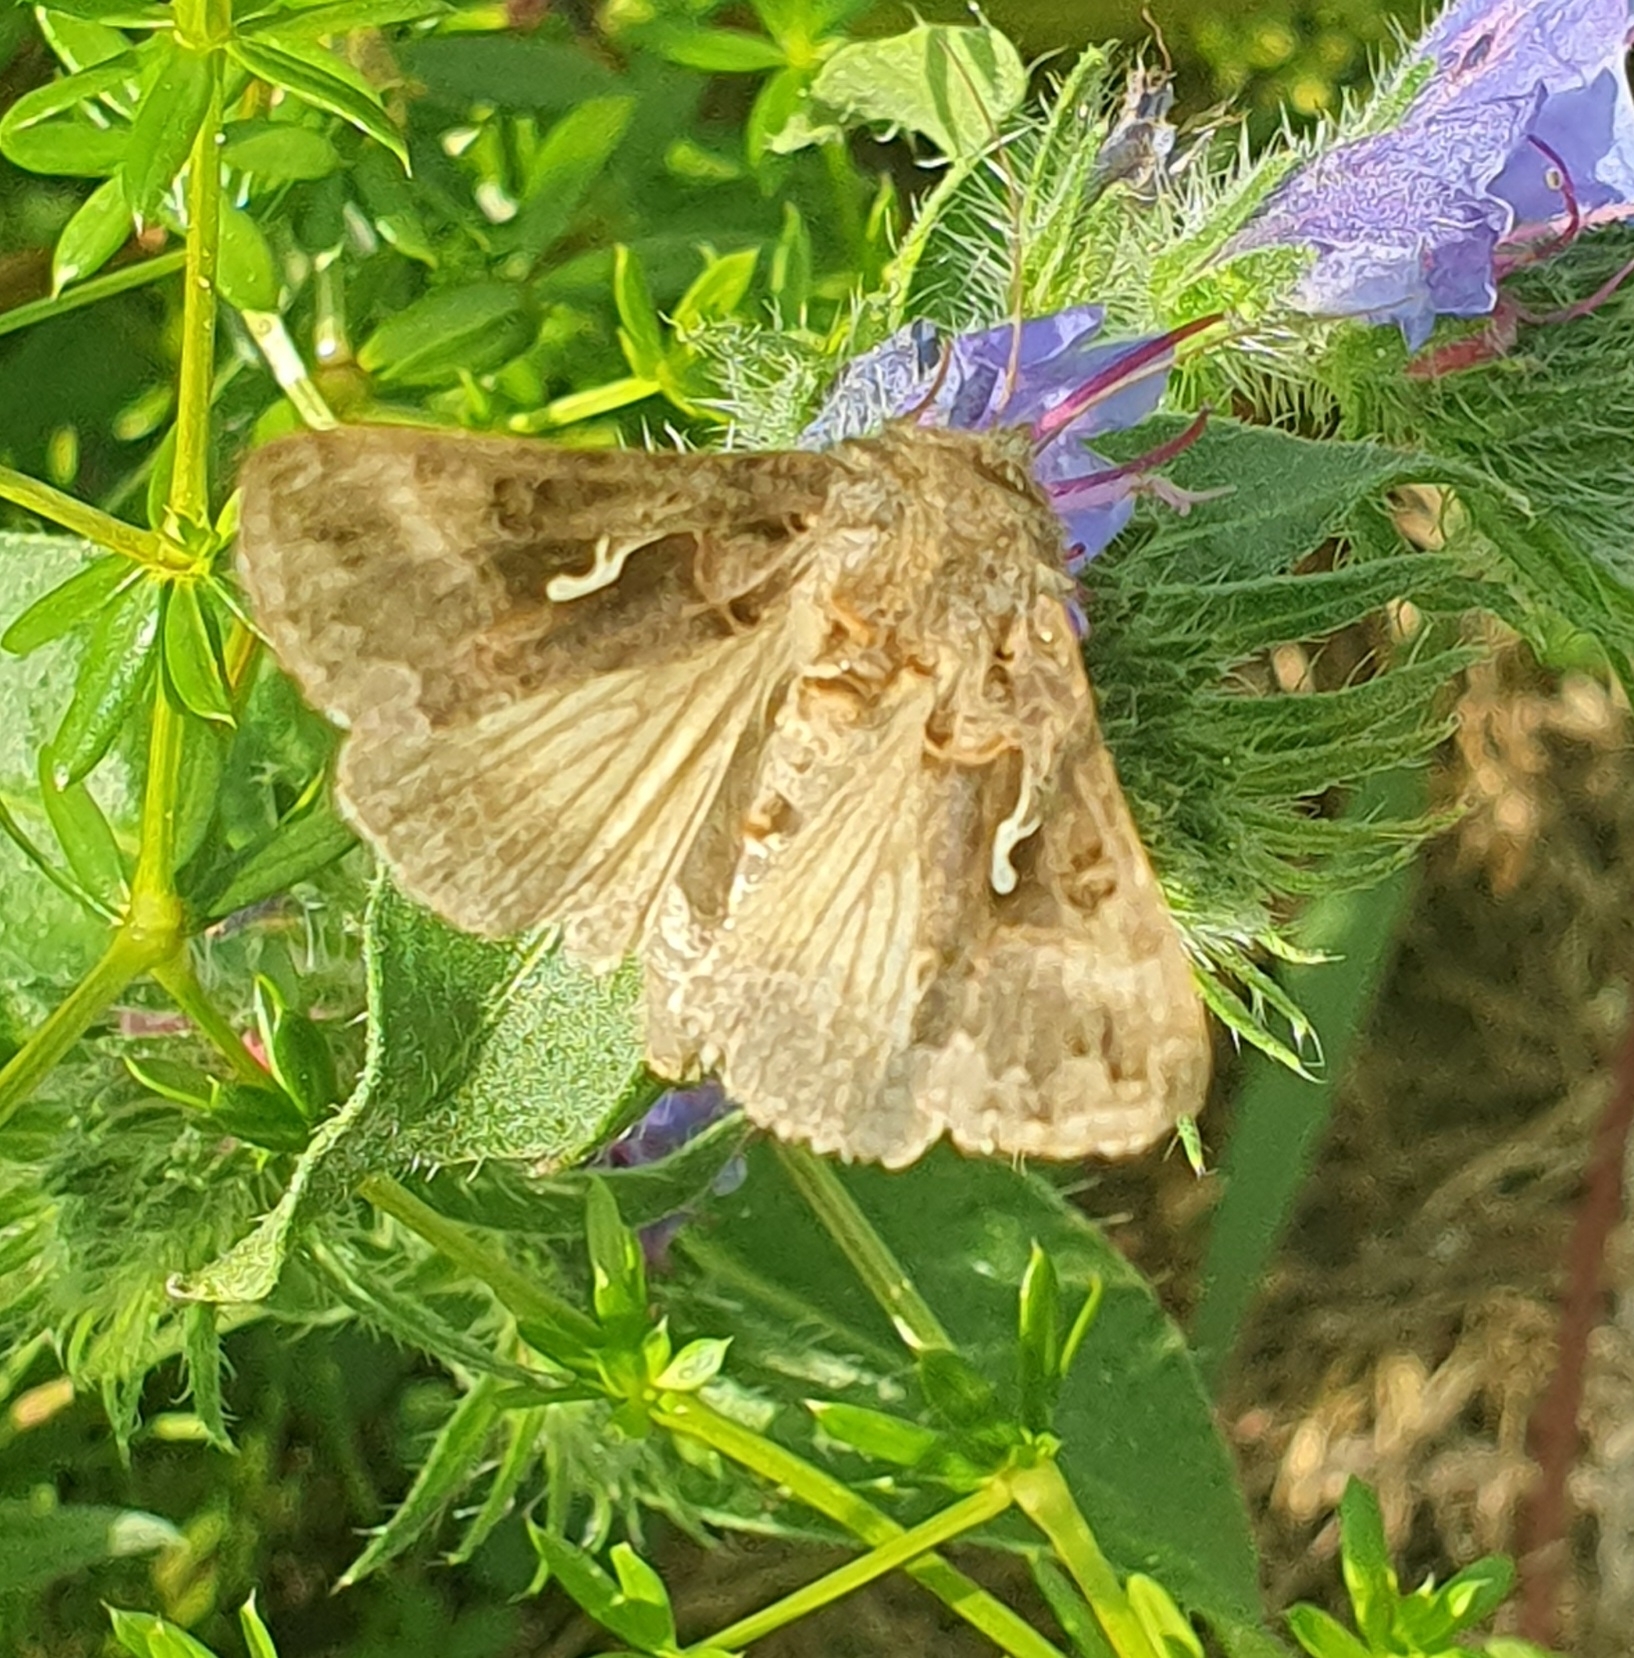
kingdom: Animalia
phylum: Arthropoda
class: Insecta
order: Lepidoptera
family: Noctuidae
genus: Autographa
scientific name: Autographa gamma
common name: Silver y
